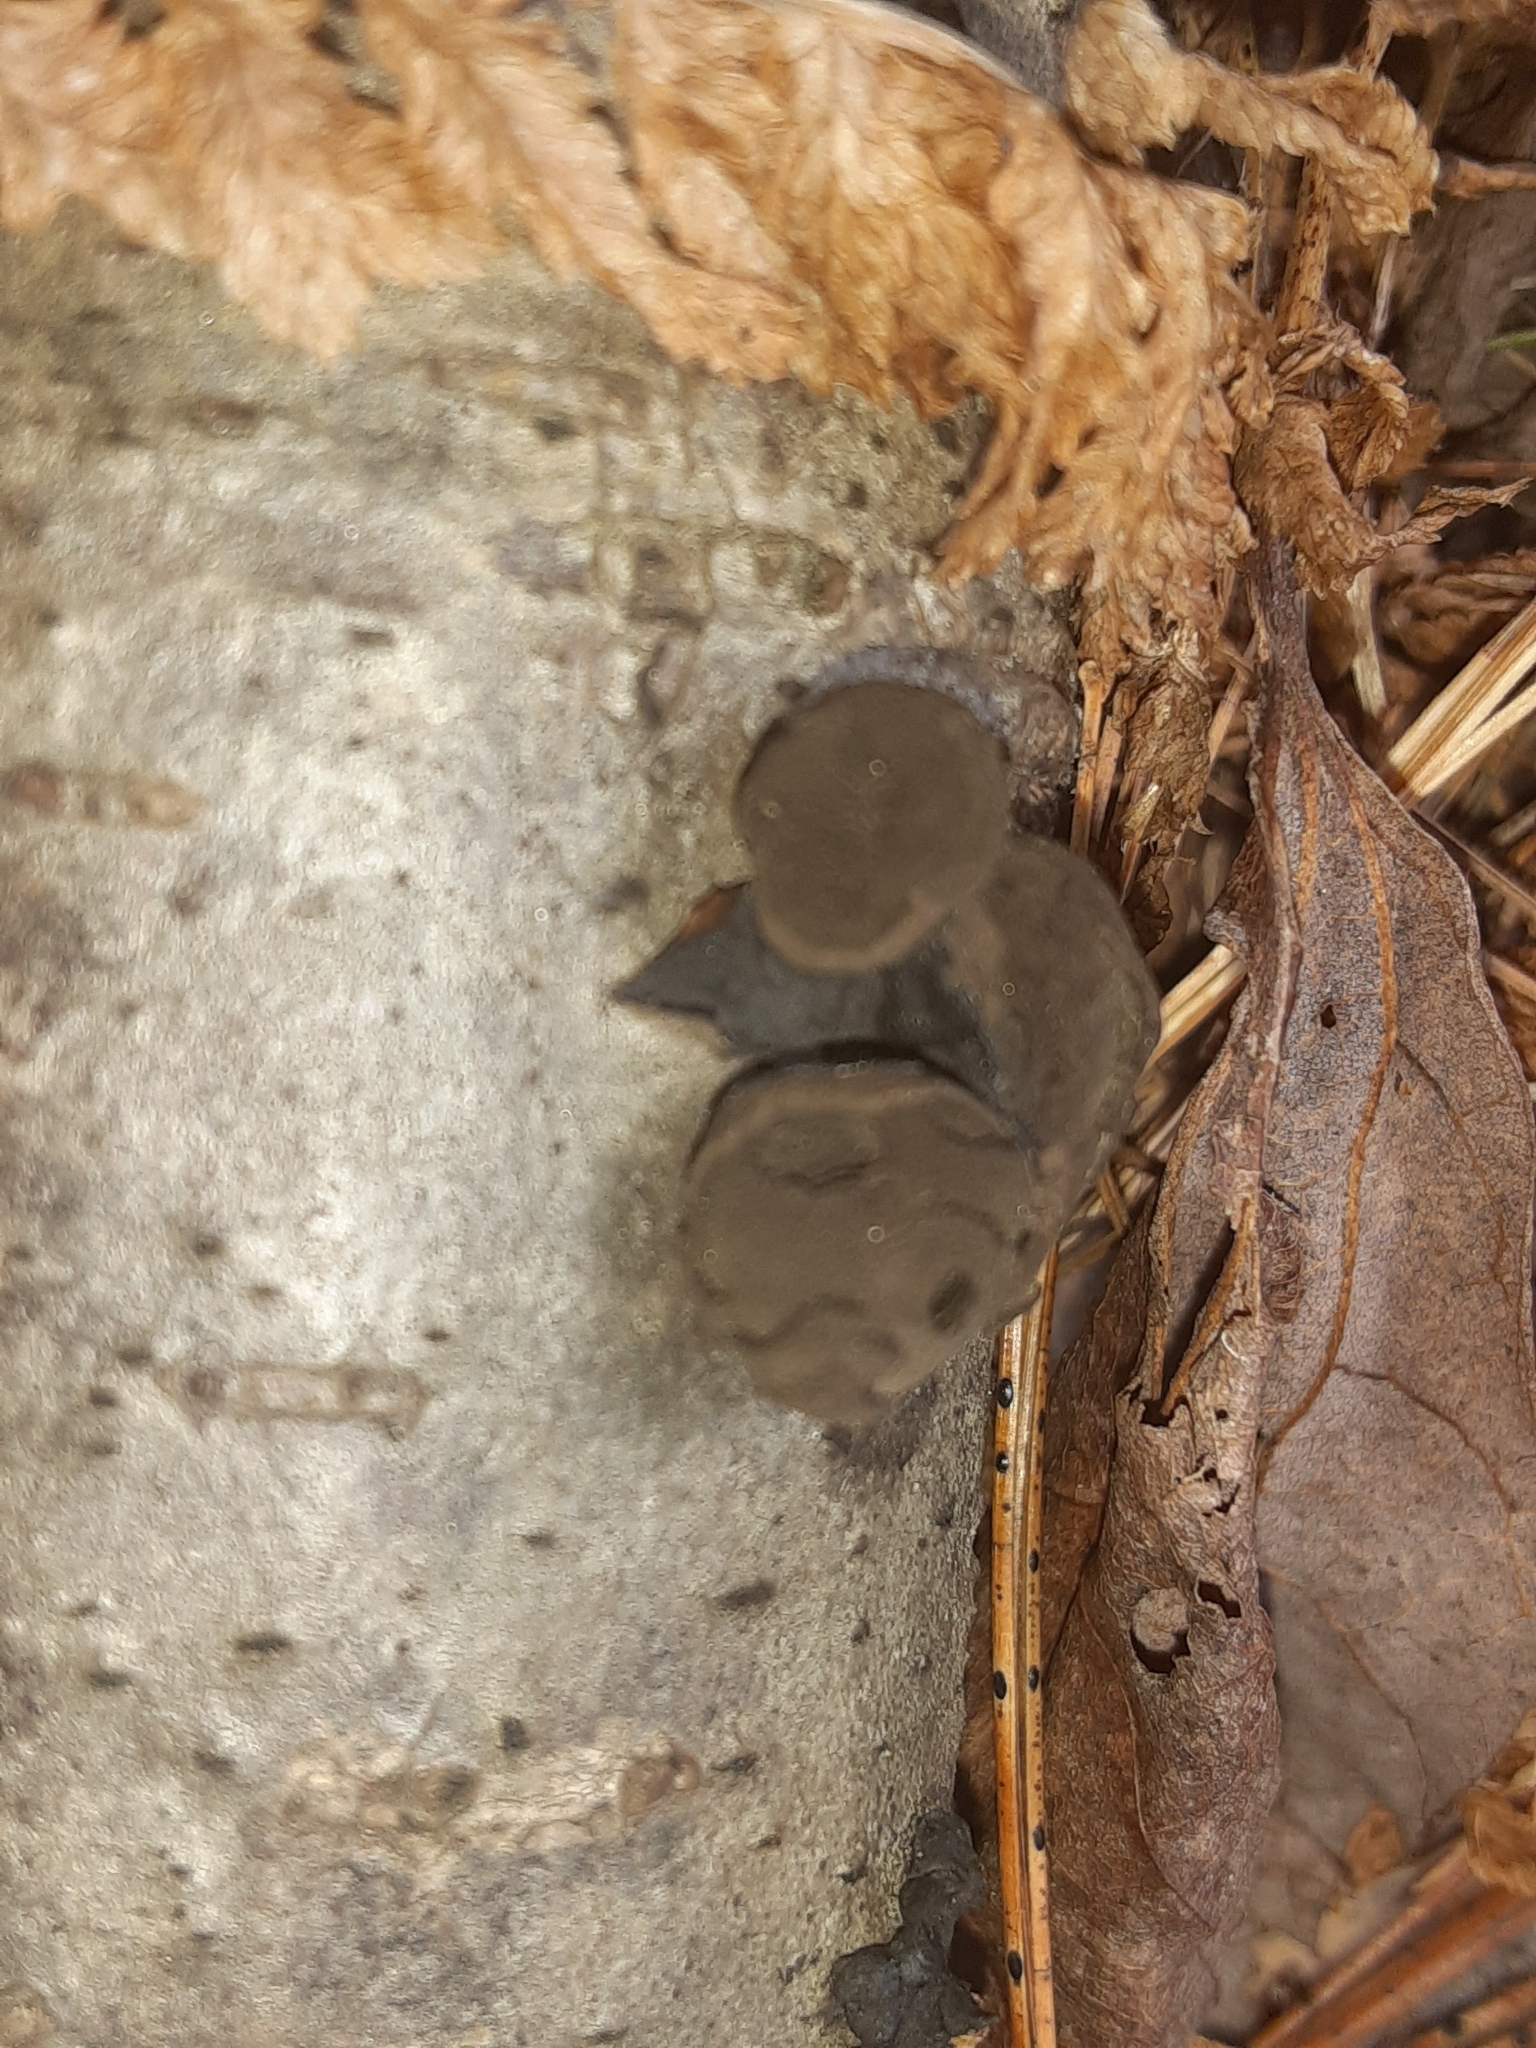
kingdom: Fungi
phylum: Ascomycota
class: Leotiomycetes
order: Phacidiales
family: Phacidiaceae
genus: Bulgaria
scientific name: Bulgaria inquinans
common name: Black bulgar
